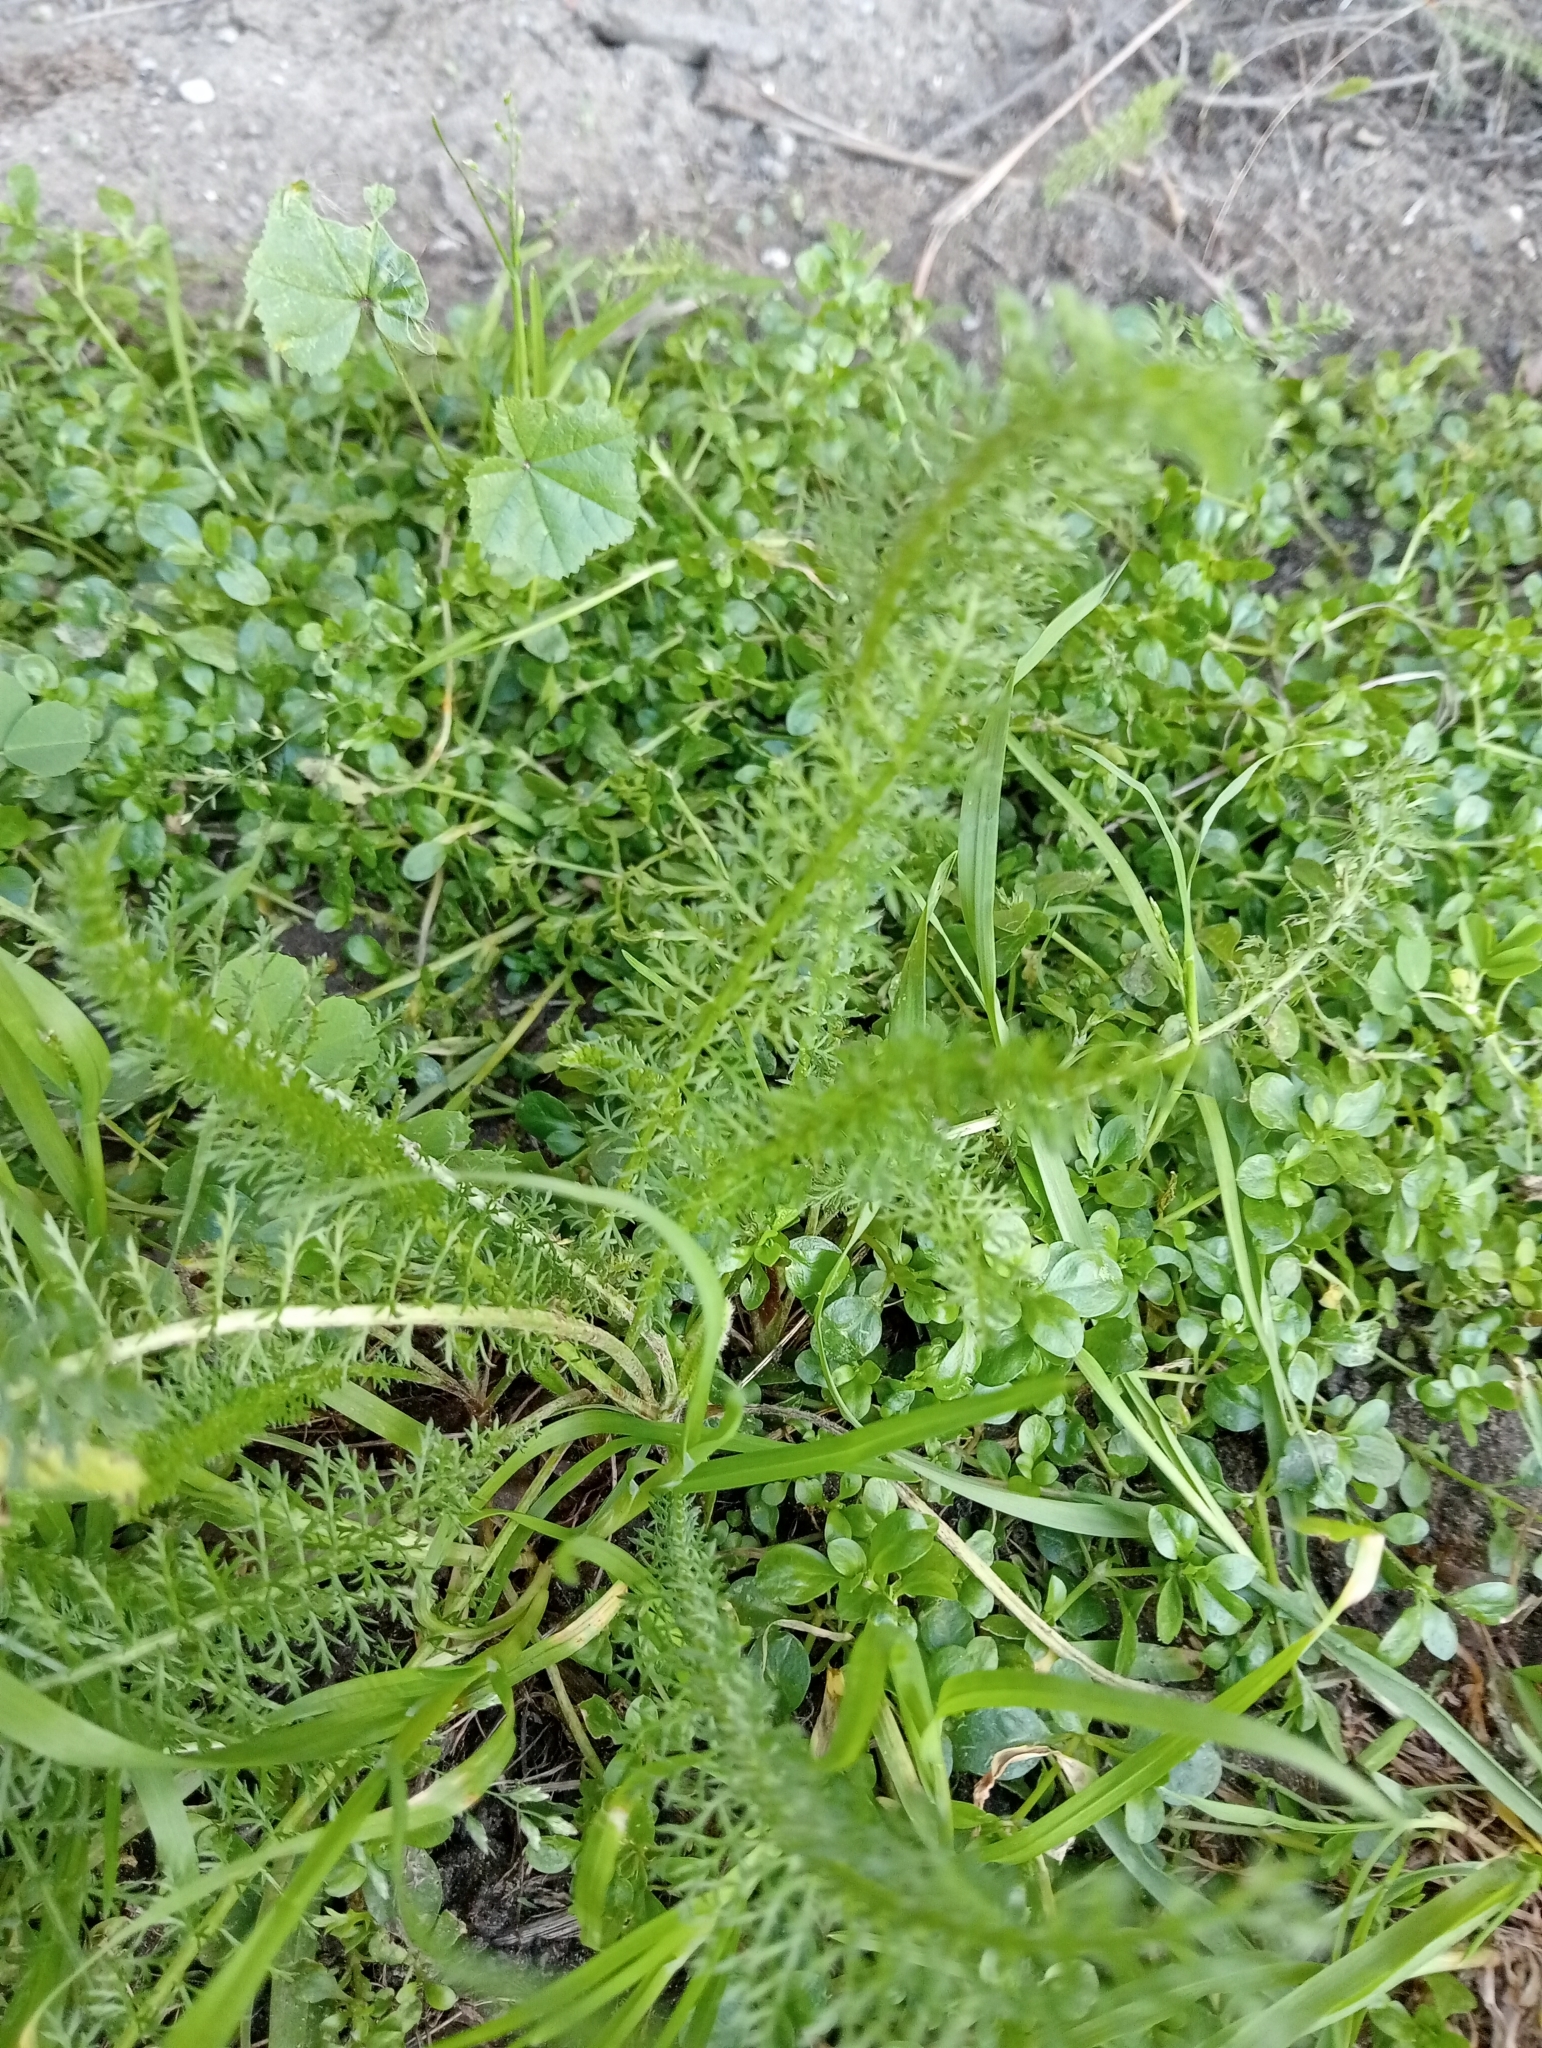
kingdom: Plantae
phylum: Tracheophyta
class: Magnoliopsida
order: Asterales
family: Asteraceae
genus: Achillea
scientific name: Achillea millefolium
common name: Yarrow
